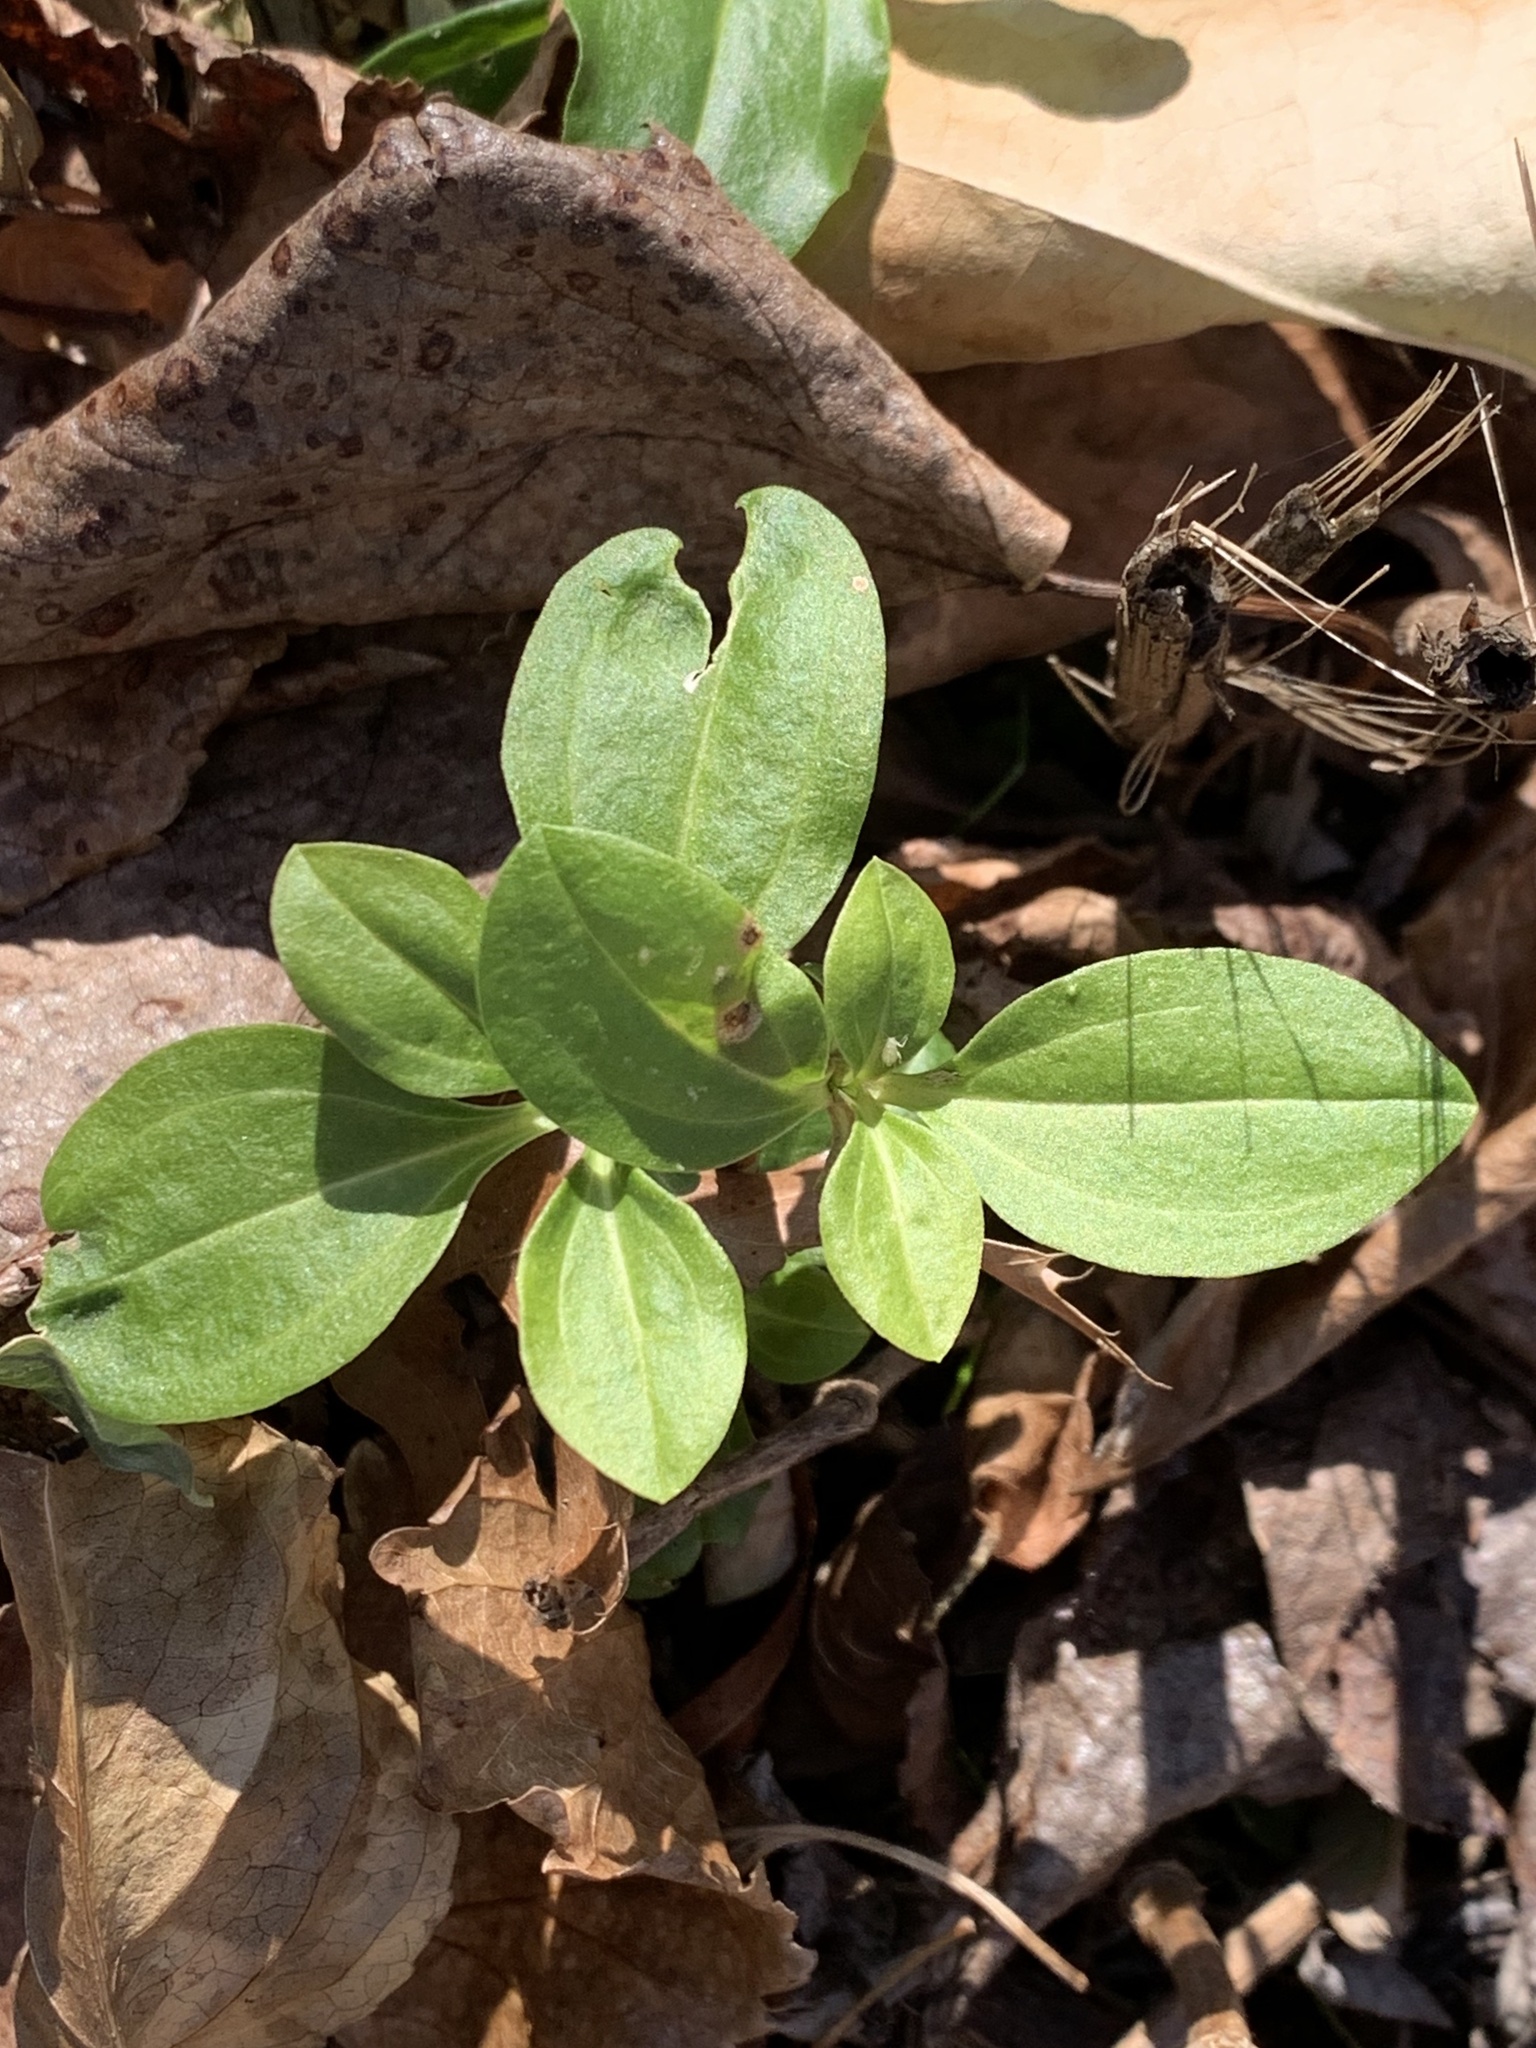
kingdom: Plantae
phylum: Tracheophyta
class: Magnoliopsida
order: Caryophyllales
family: Caryophyllaceae
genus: Saponaria
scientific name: Saponaria officinalis
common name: Soapwort
